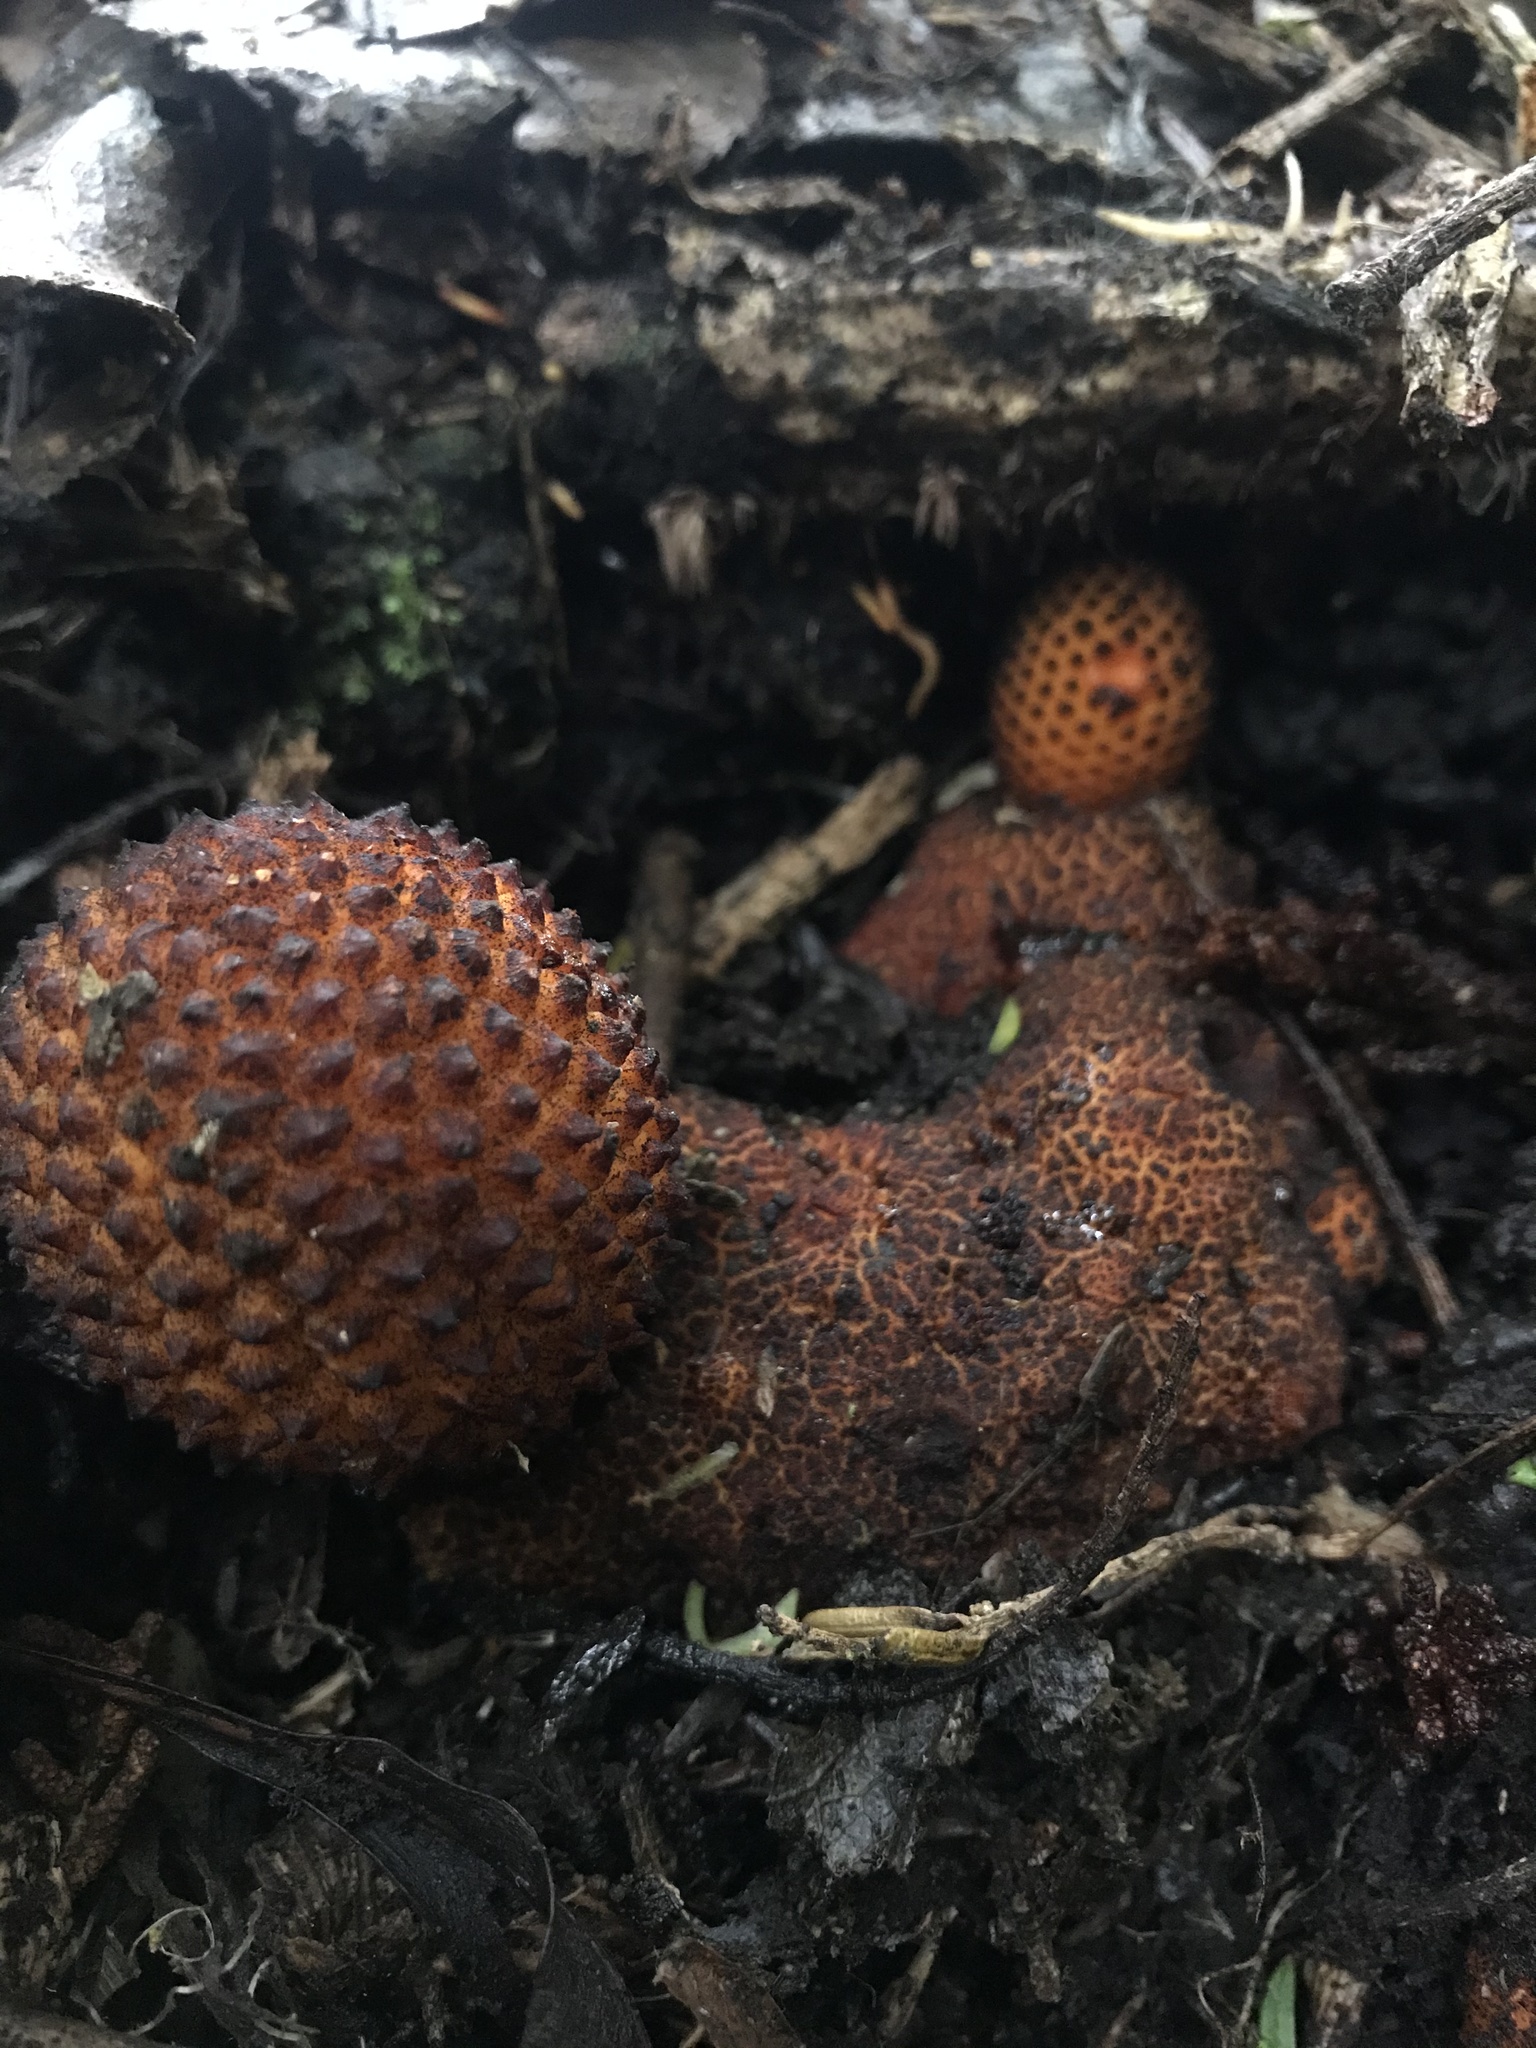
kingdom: Plantae
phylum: Tracheophyta
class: Magnoliopsida
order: Santalales
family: Balanophoraceae
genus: Corynaea
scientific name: Corynaea crassa
